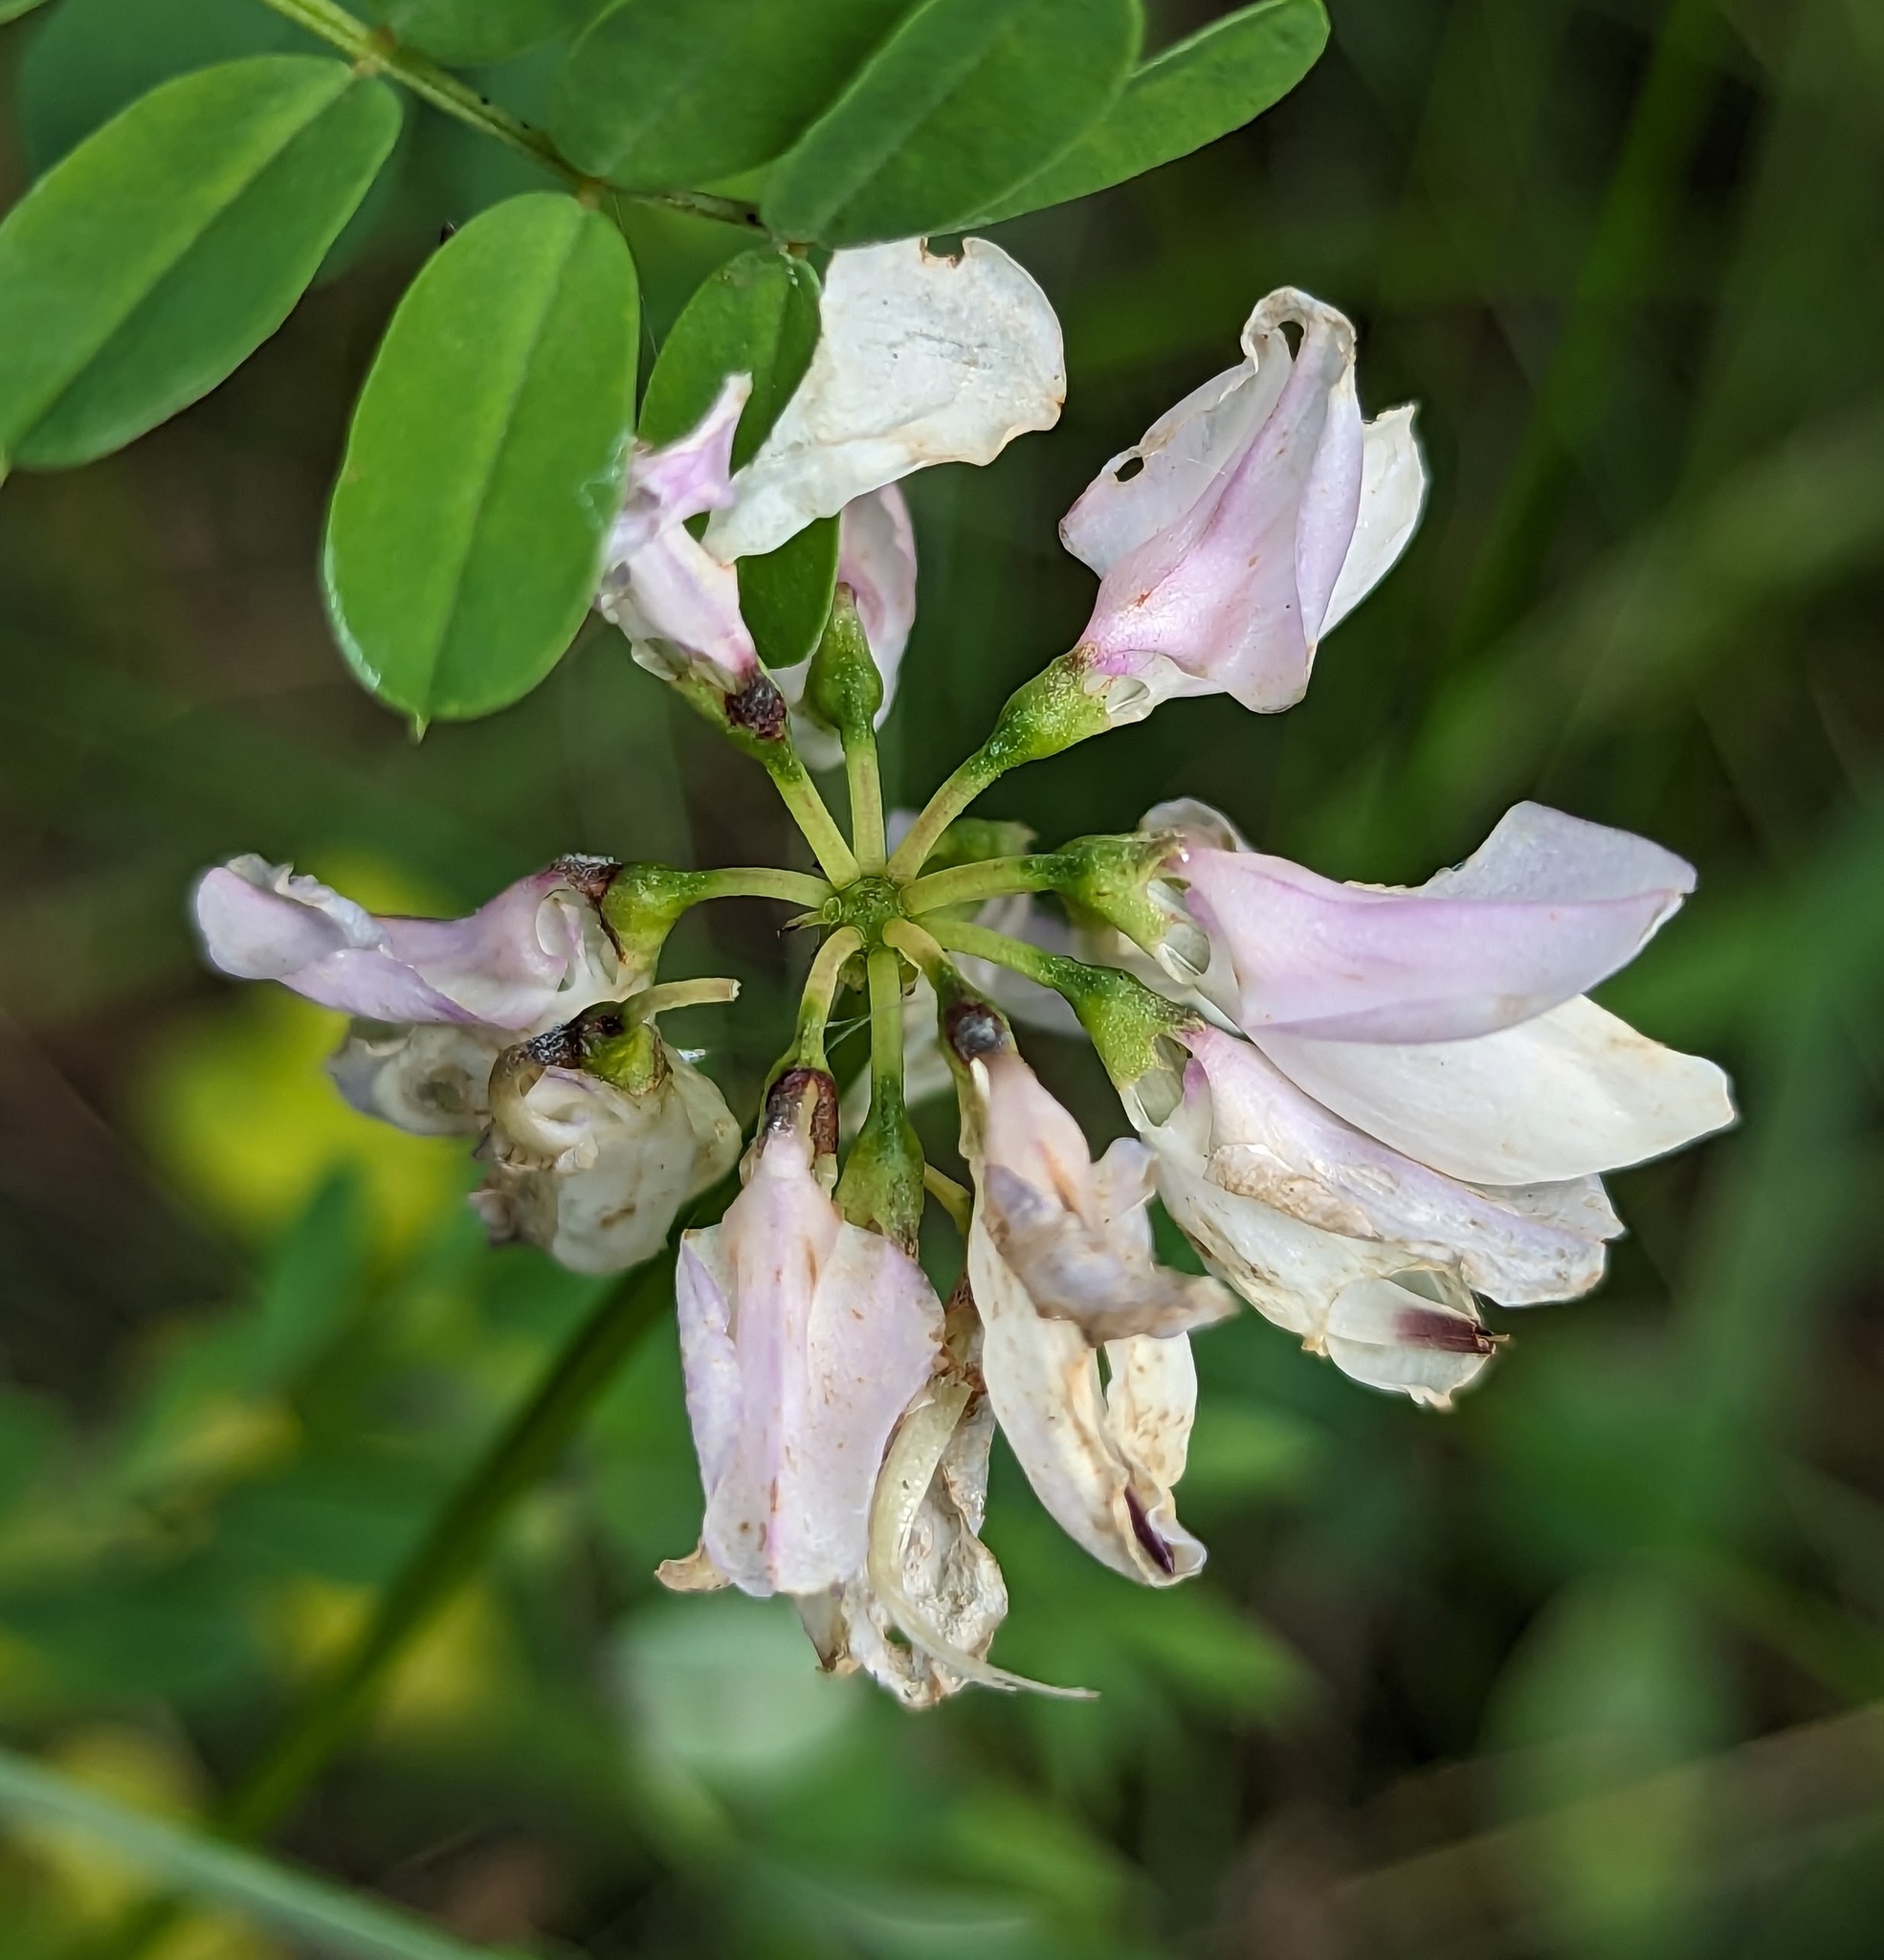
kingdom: Plantae
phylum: Tracheophyta
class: Magnoliopsida
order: Fabales
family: Fabaceae
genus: Coronilla
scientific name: Coronilla varia
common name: Crownvetch
